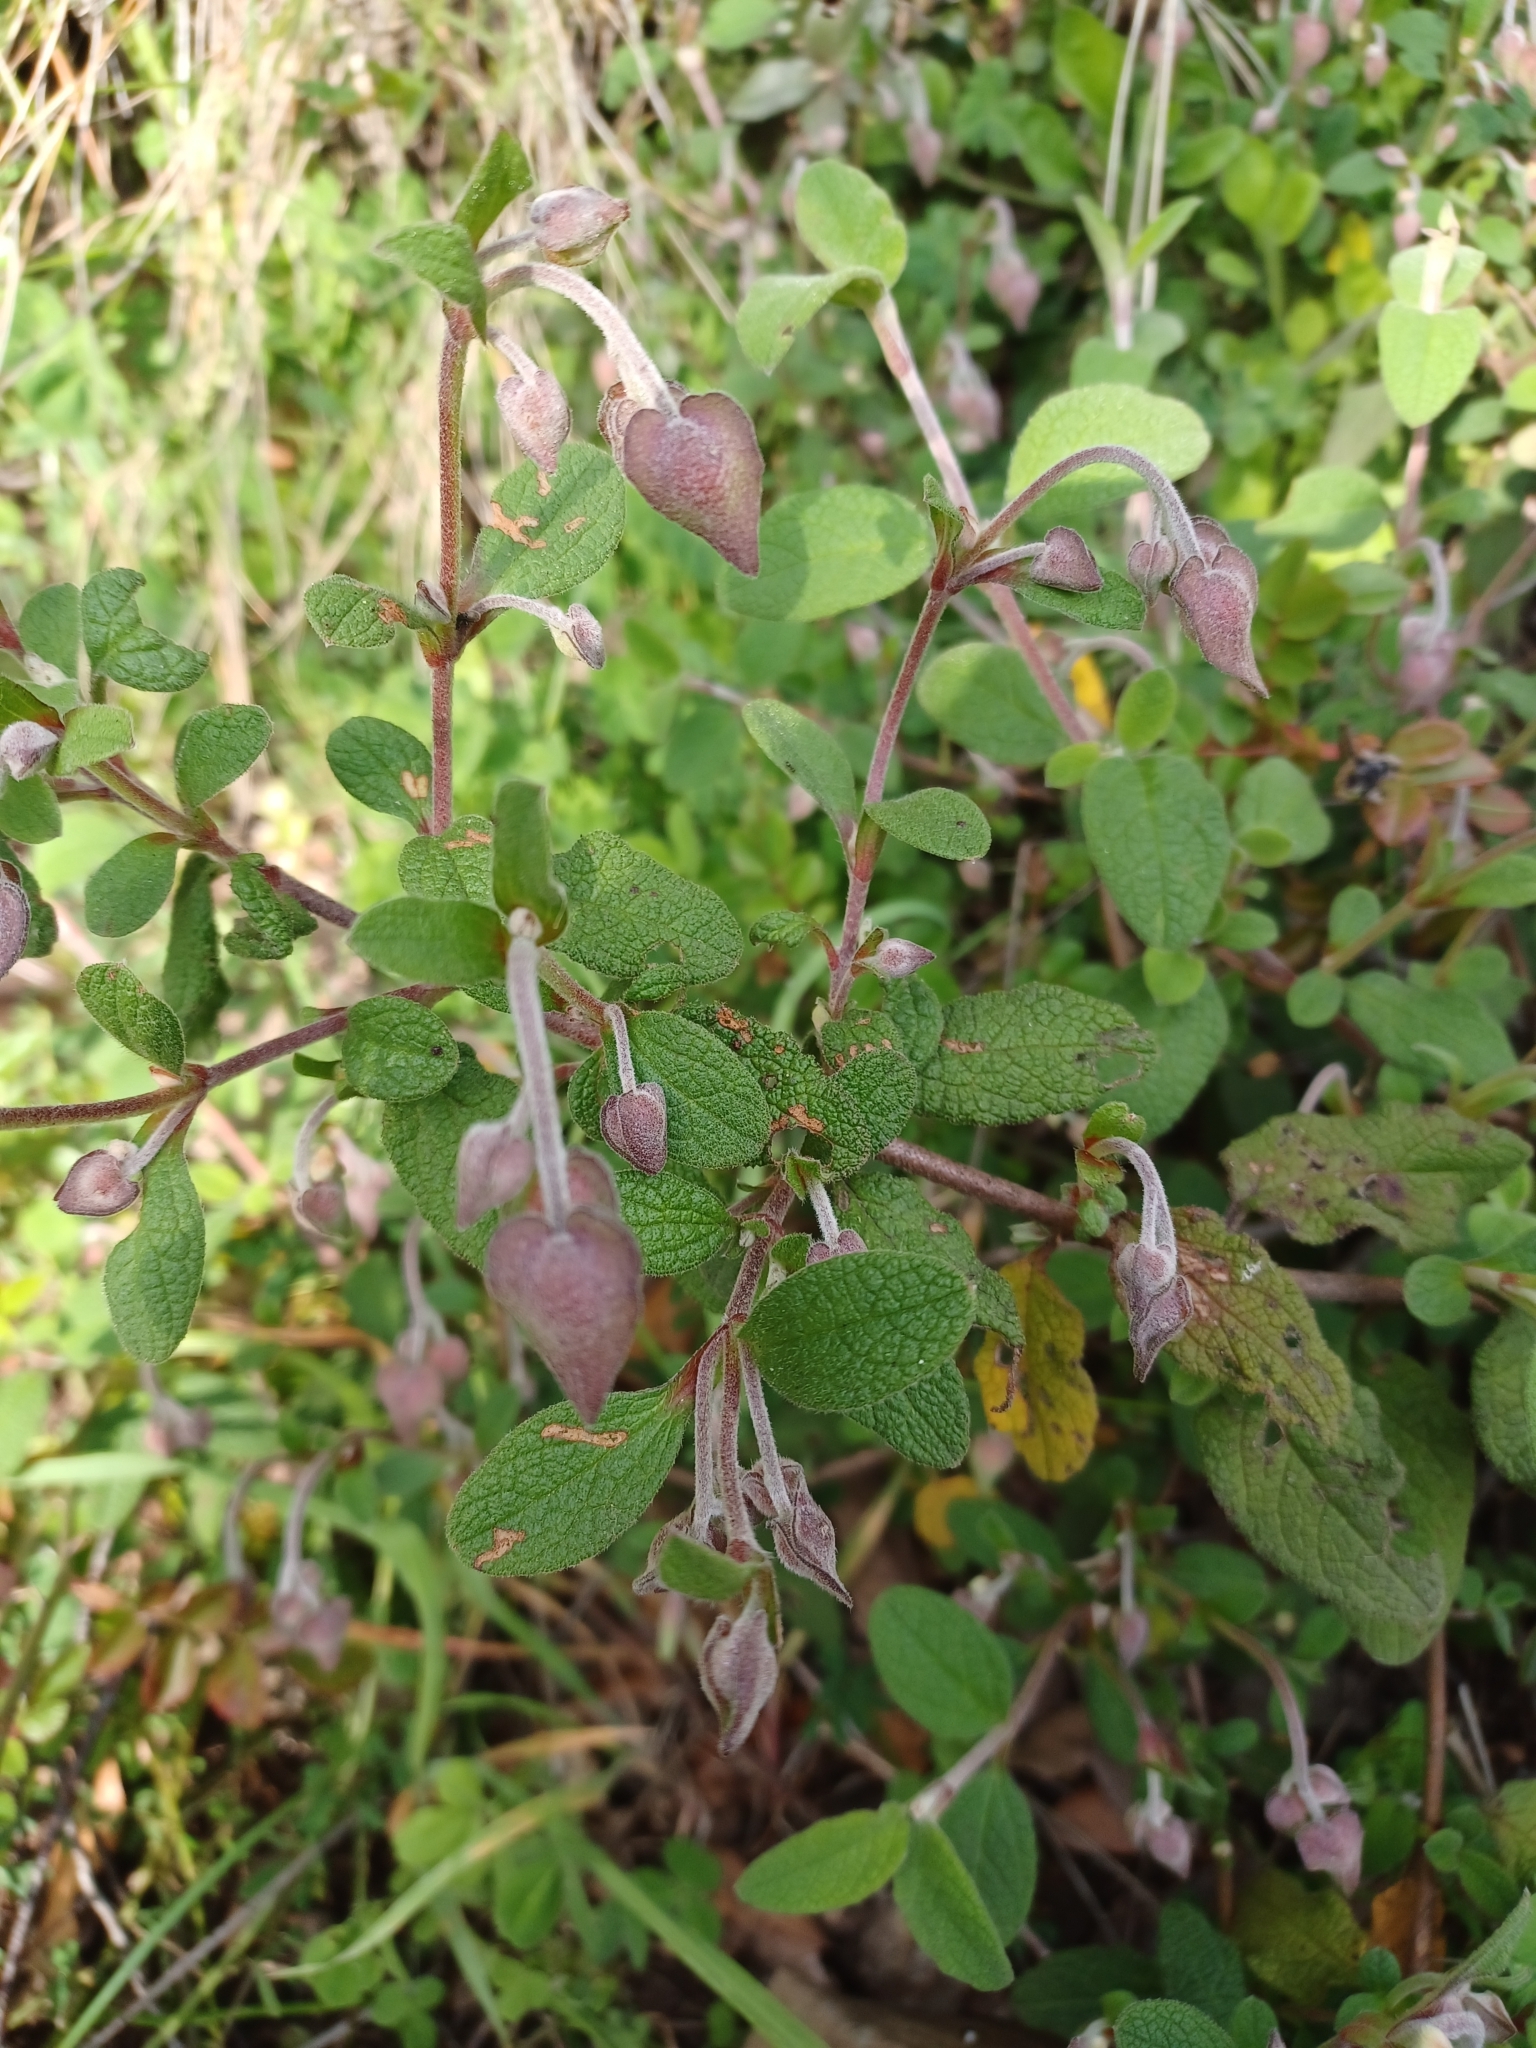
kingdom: Plantae
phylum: Tracheophyta
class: Magnoliopsida
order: Malvales
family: Cistaceae
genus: Cistus
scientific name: Cistus salviifolius
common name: Salvia cistus
